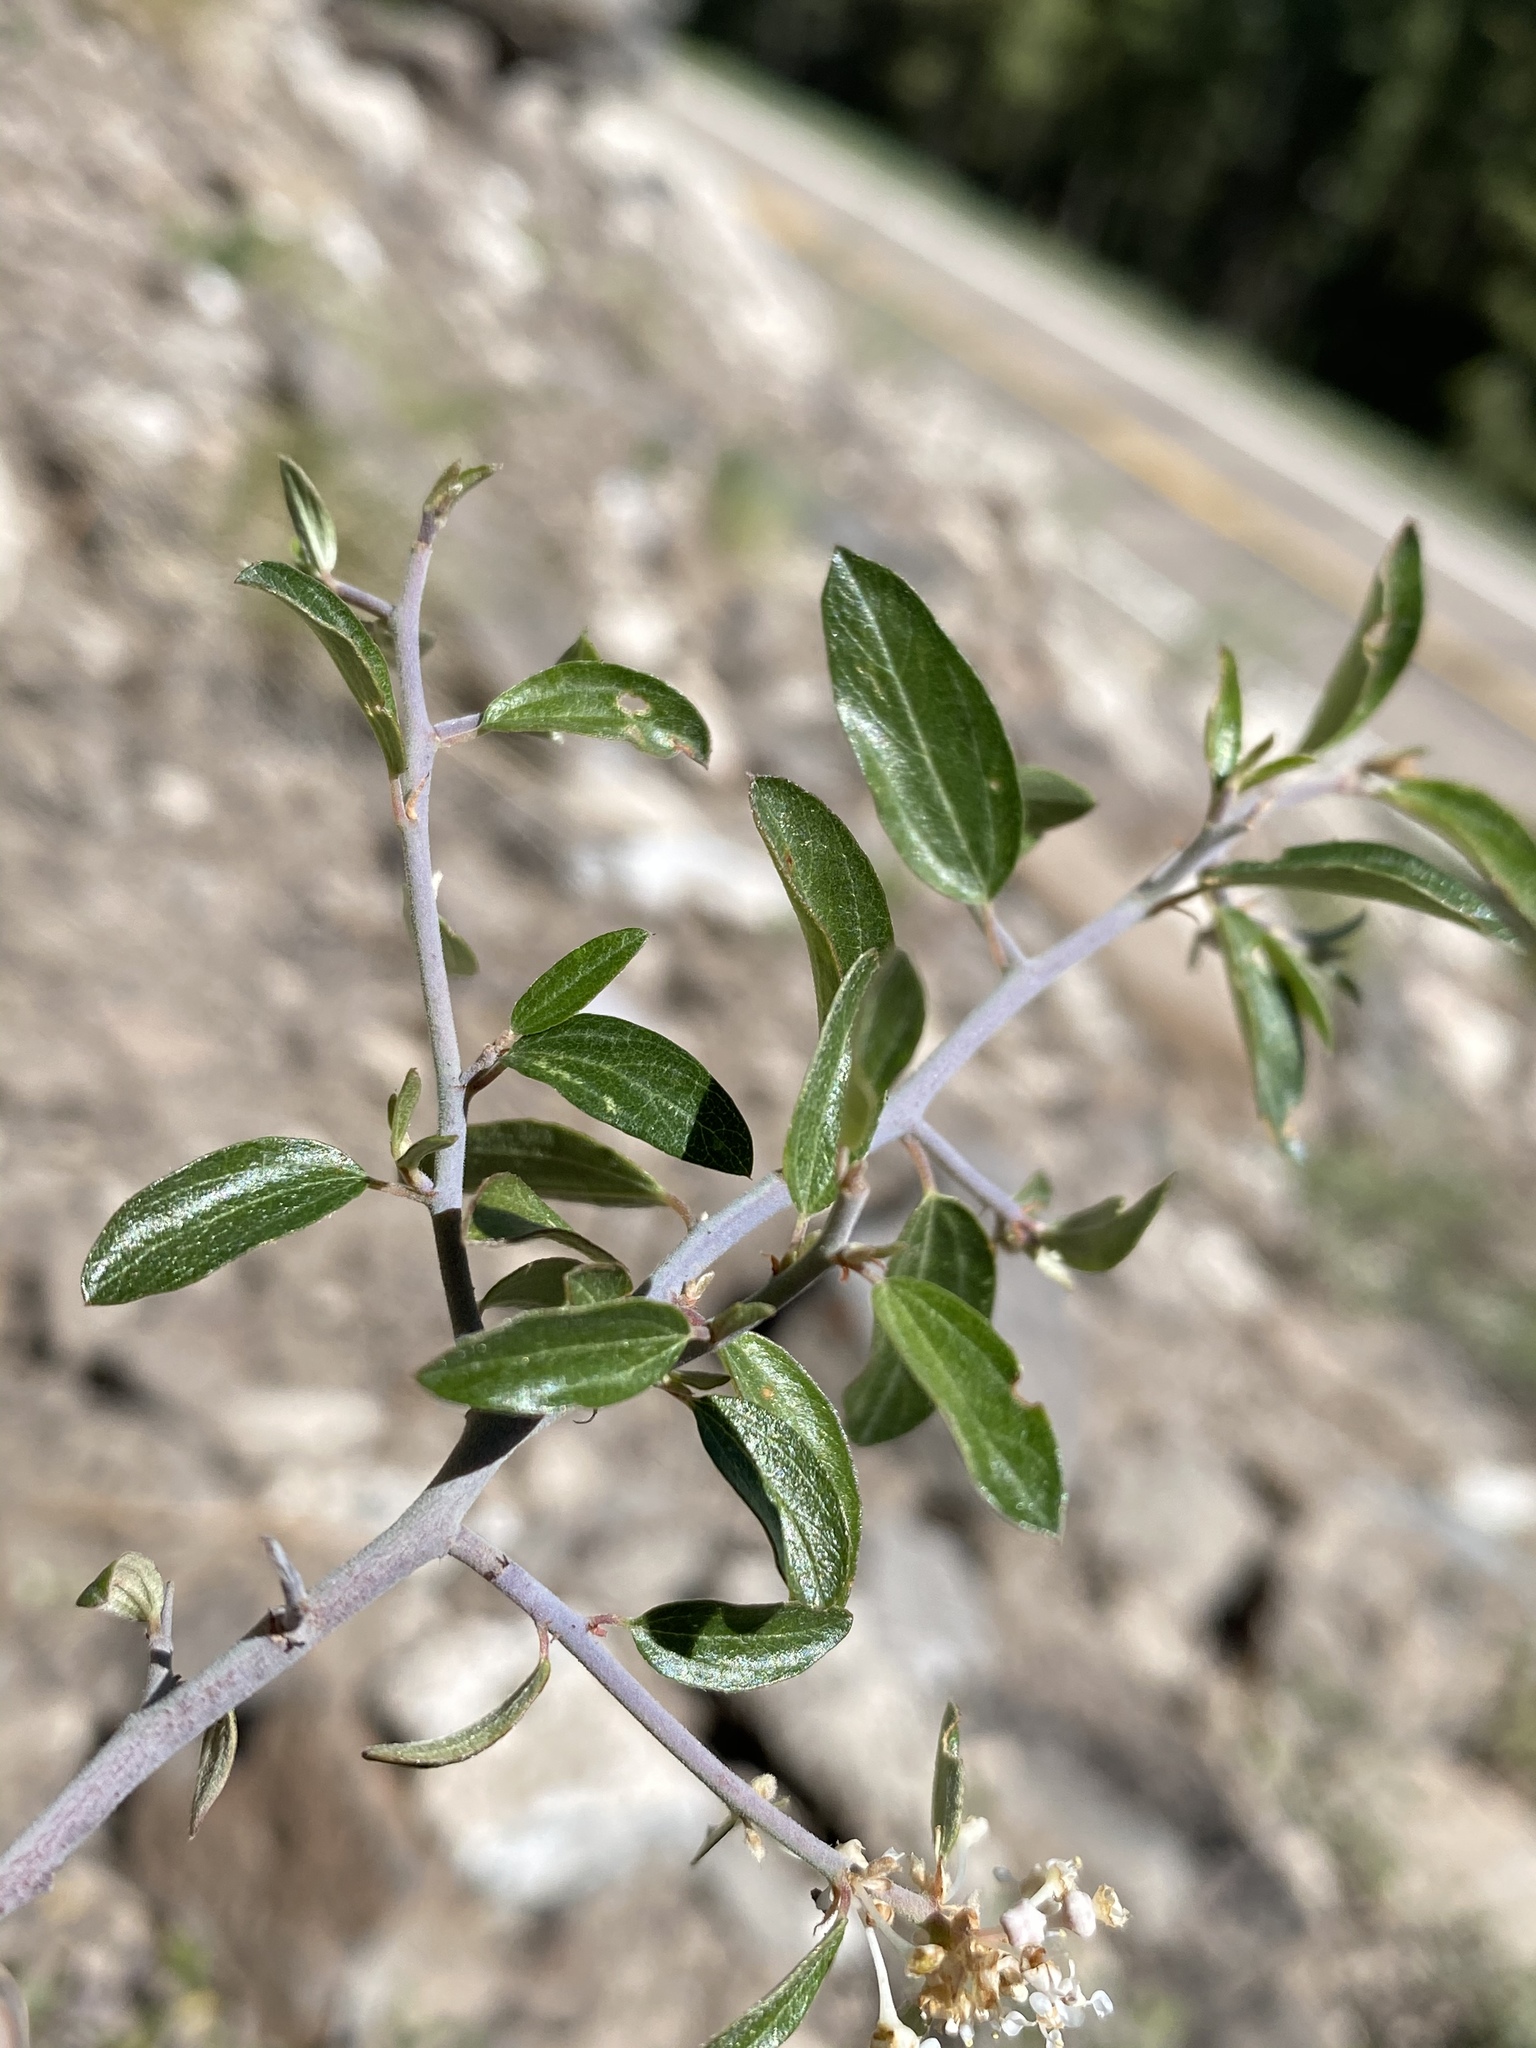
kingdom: Plantae
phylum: Tracheophyta
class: Magnoliopsida
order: Rosales
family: Rhamnaceae
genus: Ceanothus
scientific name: Ceanothus fendleri
